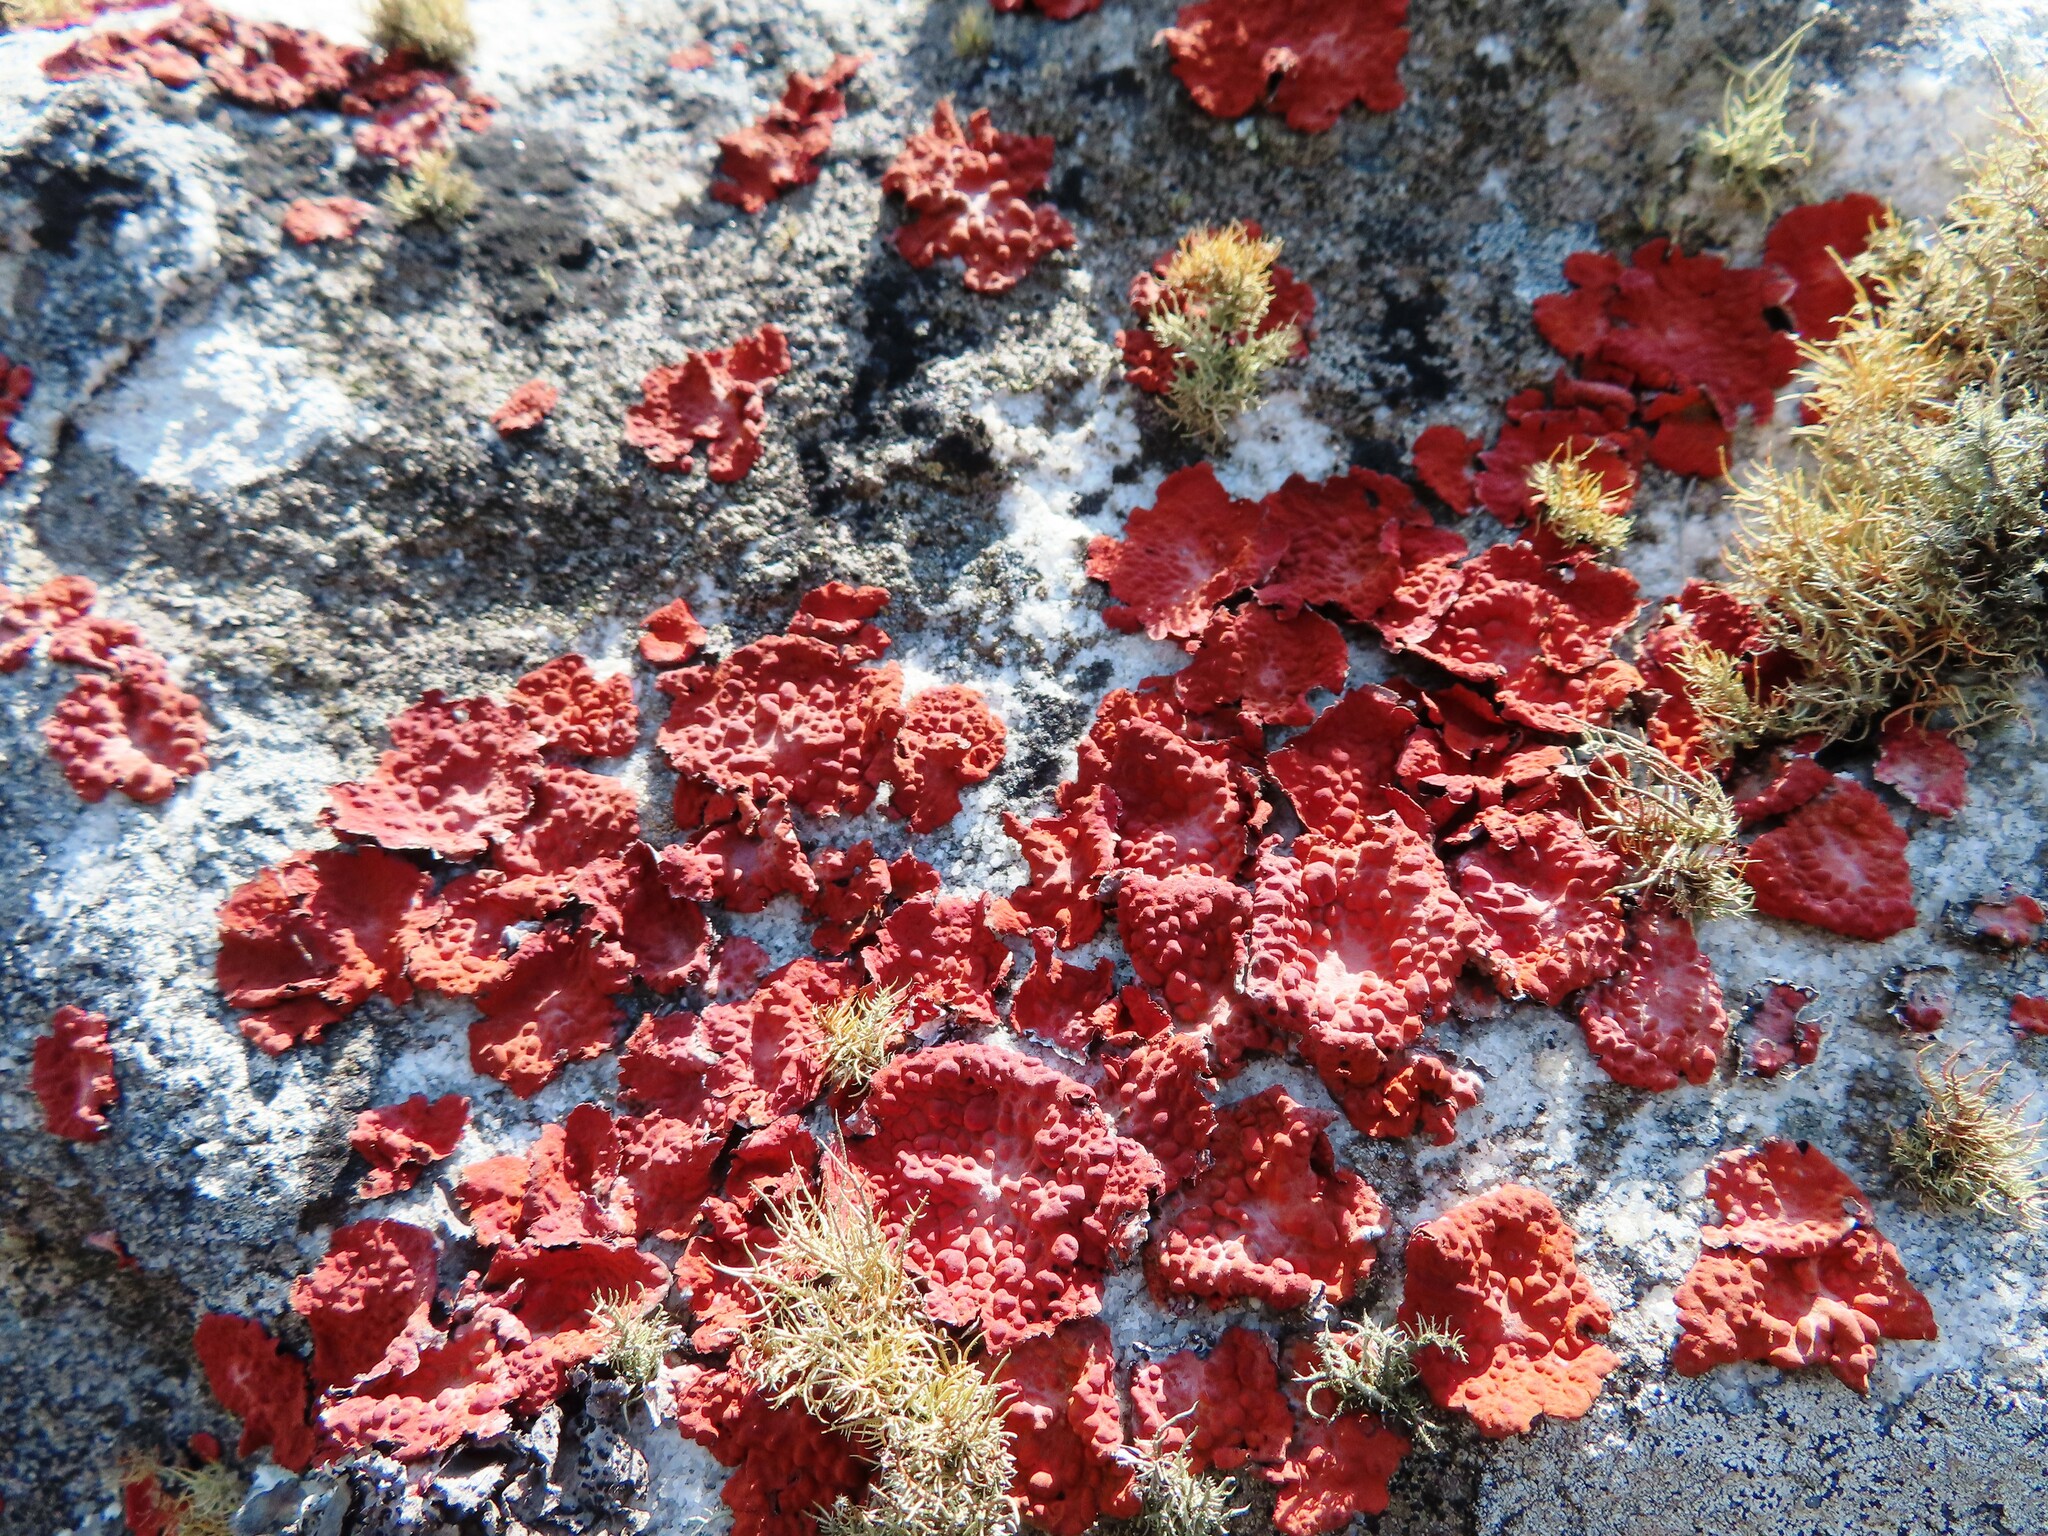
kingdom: Fungi
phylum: Ascomycota
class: Lecanoromycetes
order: Umbilicariales
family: Umbilicariaceae
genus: Lasallia
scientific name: Lasallia rubiginosa
